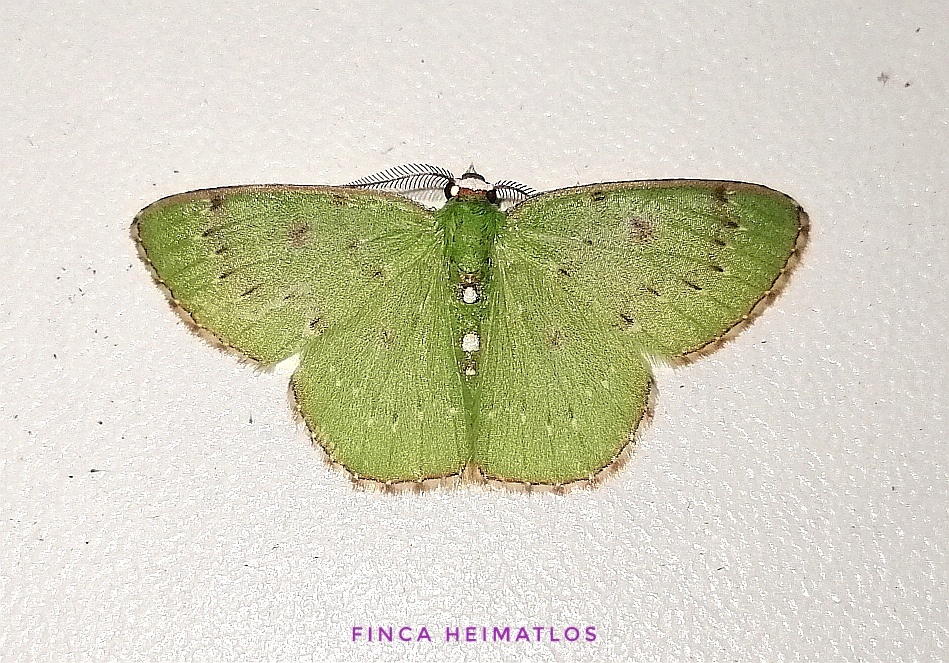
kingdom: Animalia
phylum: Arthropoda
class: Insecta
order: Lepidoptera
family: Geometridae
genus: Lissochlora
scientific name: Lissochlora albociliaria
